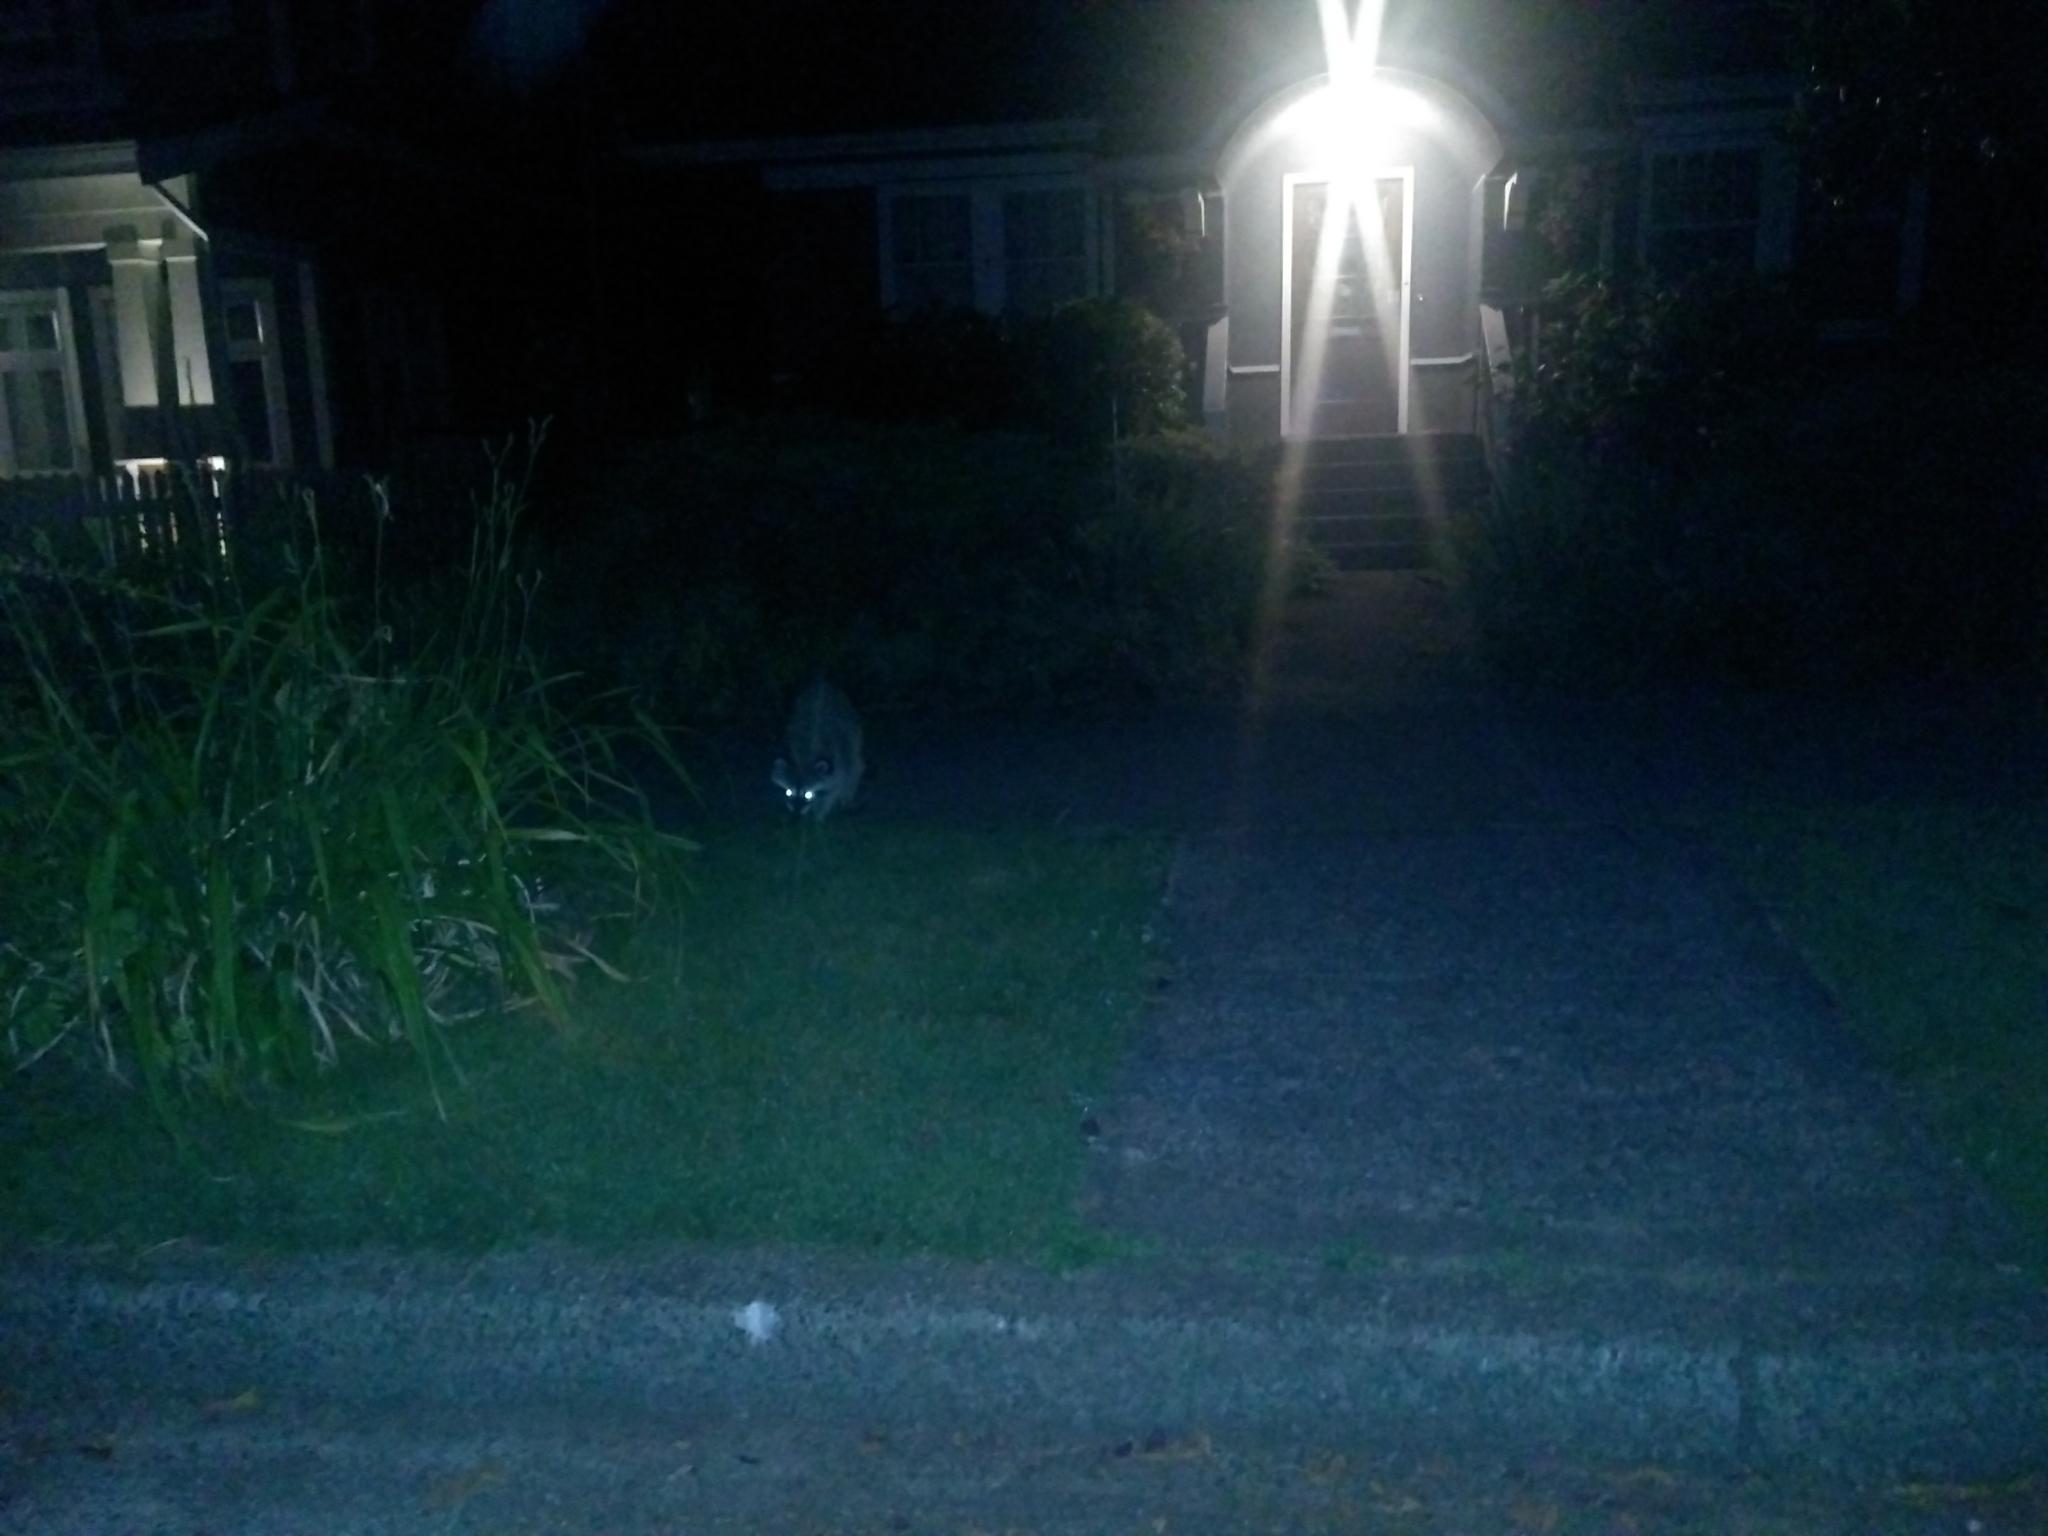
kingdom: Animalia
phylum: Chordata
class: Mammalia
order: Carnivora
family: Procyonidae
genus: Procyon
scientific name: Procyon lotor
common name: Raccoon
